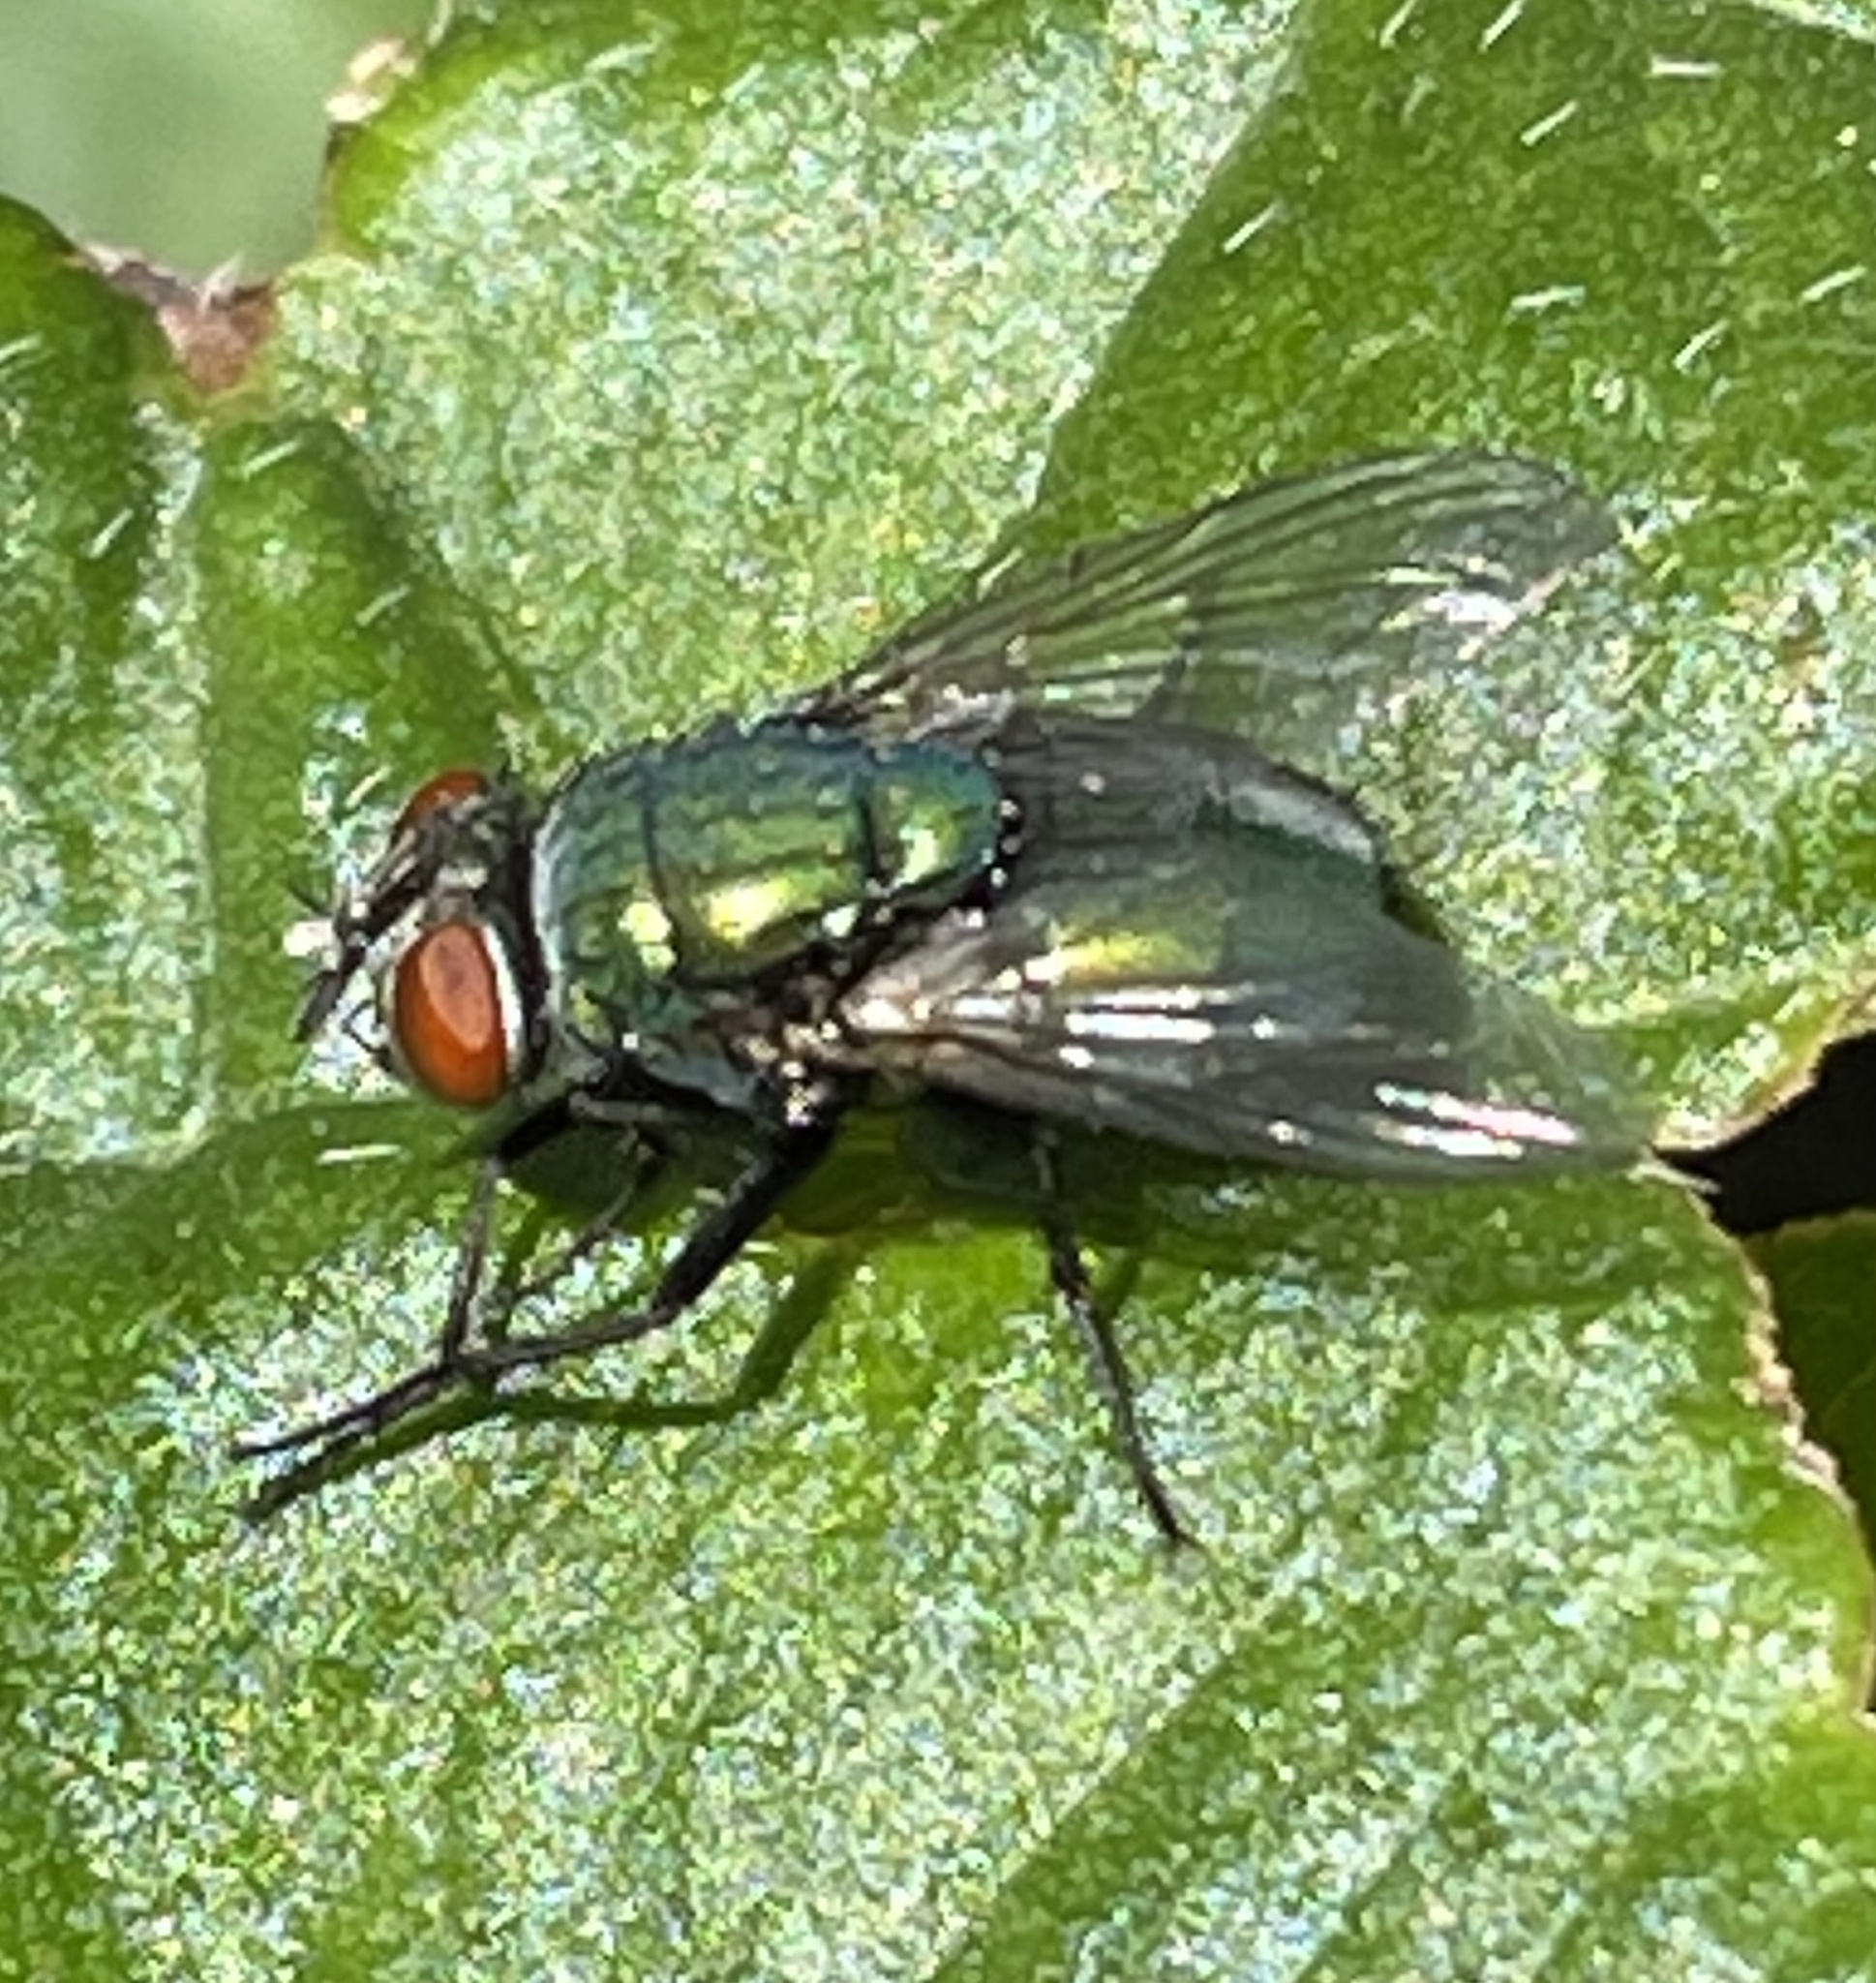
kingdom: Animalia
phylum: Arthropoda
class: Insecta
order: Diptera
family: Calliphoridae
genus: Lucilia
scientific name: Lucilia sericata
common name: Blow fly
